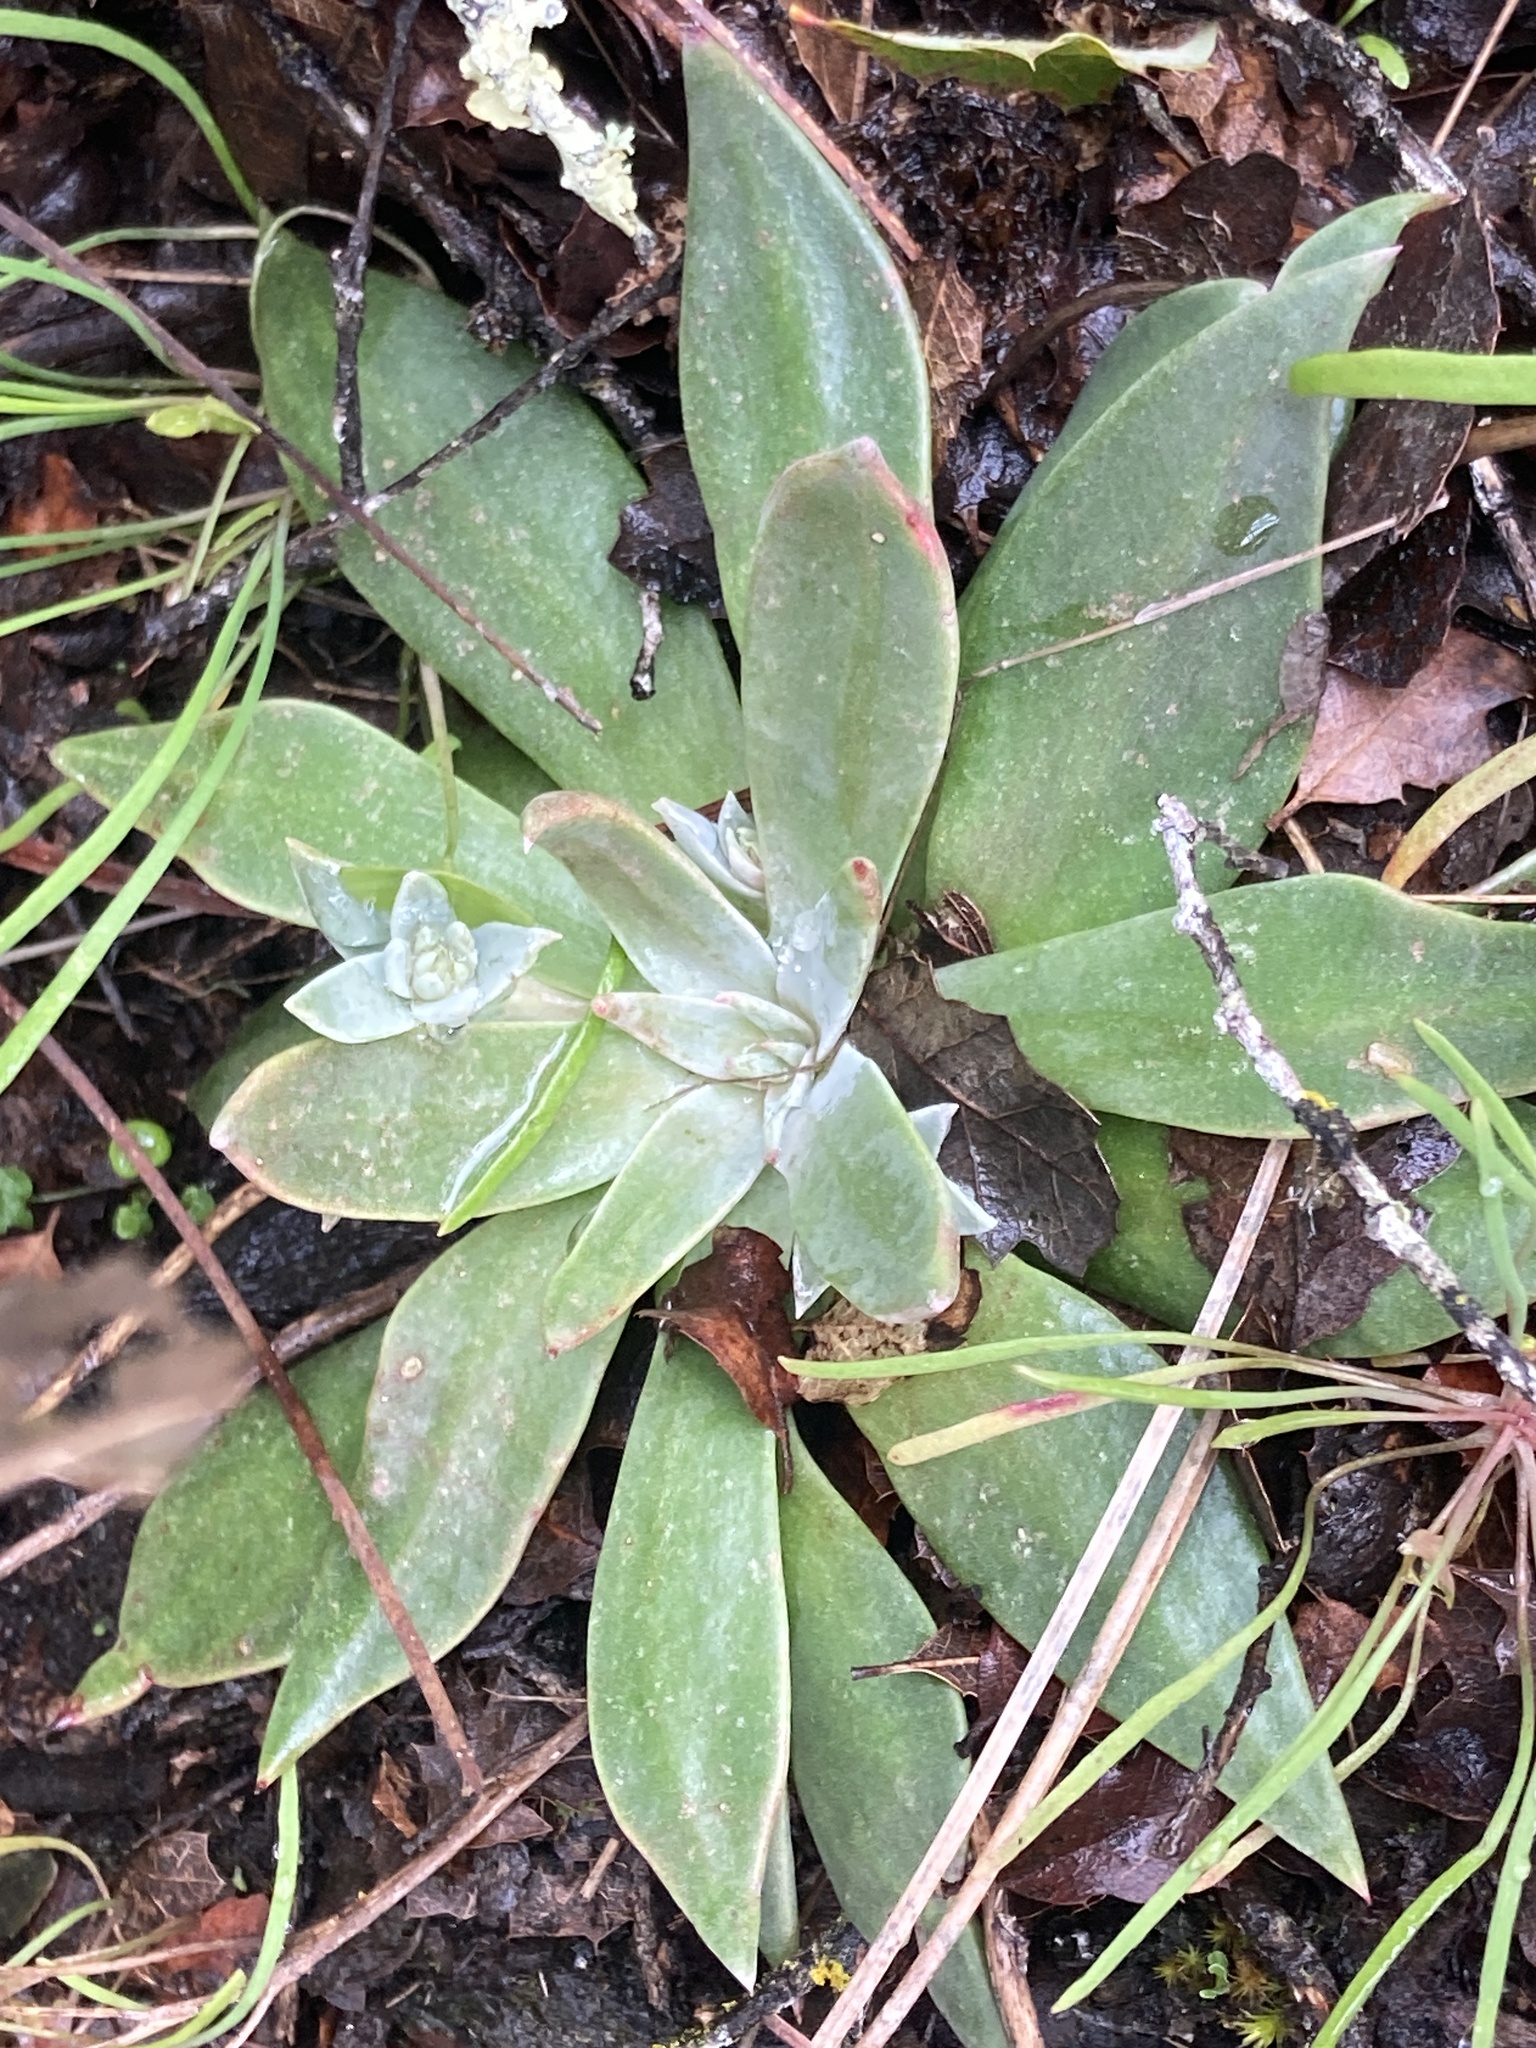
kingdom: Plantae
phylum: Tracheophyta
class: Magnoliopsida
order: Saxifragales
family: Crassulaceae
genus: Dudleya
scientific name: Dudleya cymosa
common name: Canyon dudleya
